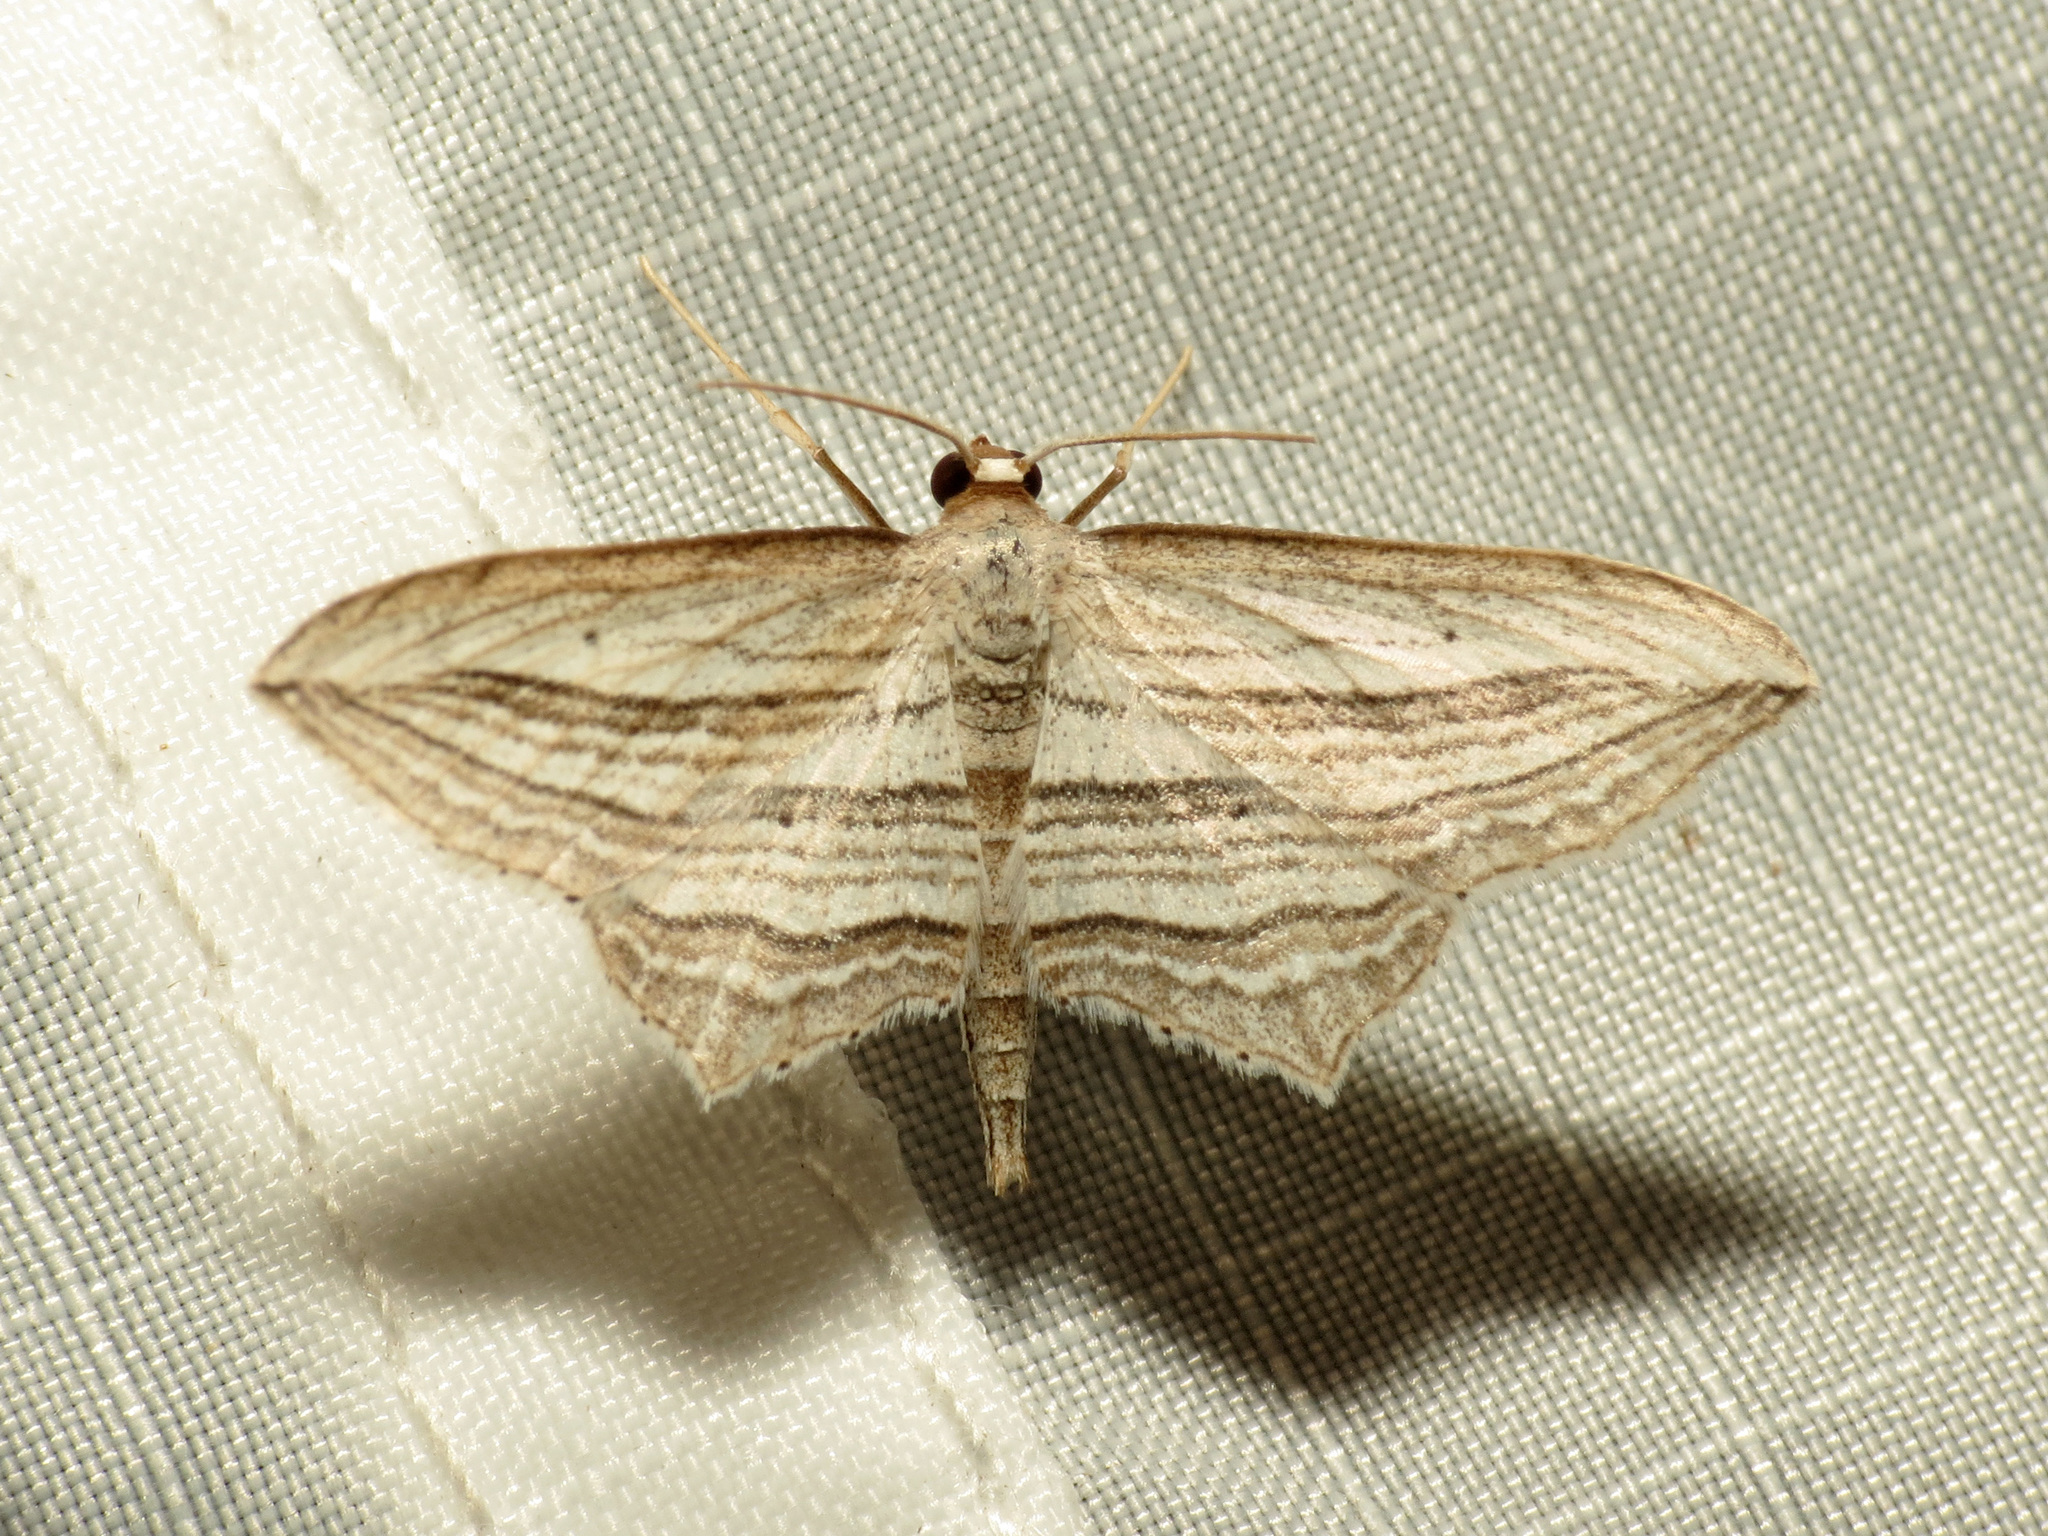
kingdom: Animalia
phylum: Arthropoda
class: Insecta
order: Lepidoptera
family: Geometridae
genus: Arcobara
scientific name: Arcobara multilineata
